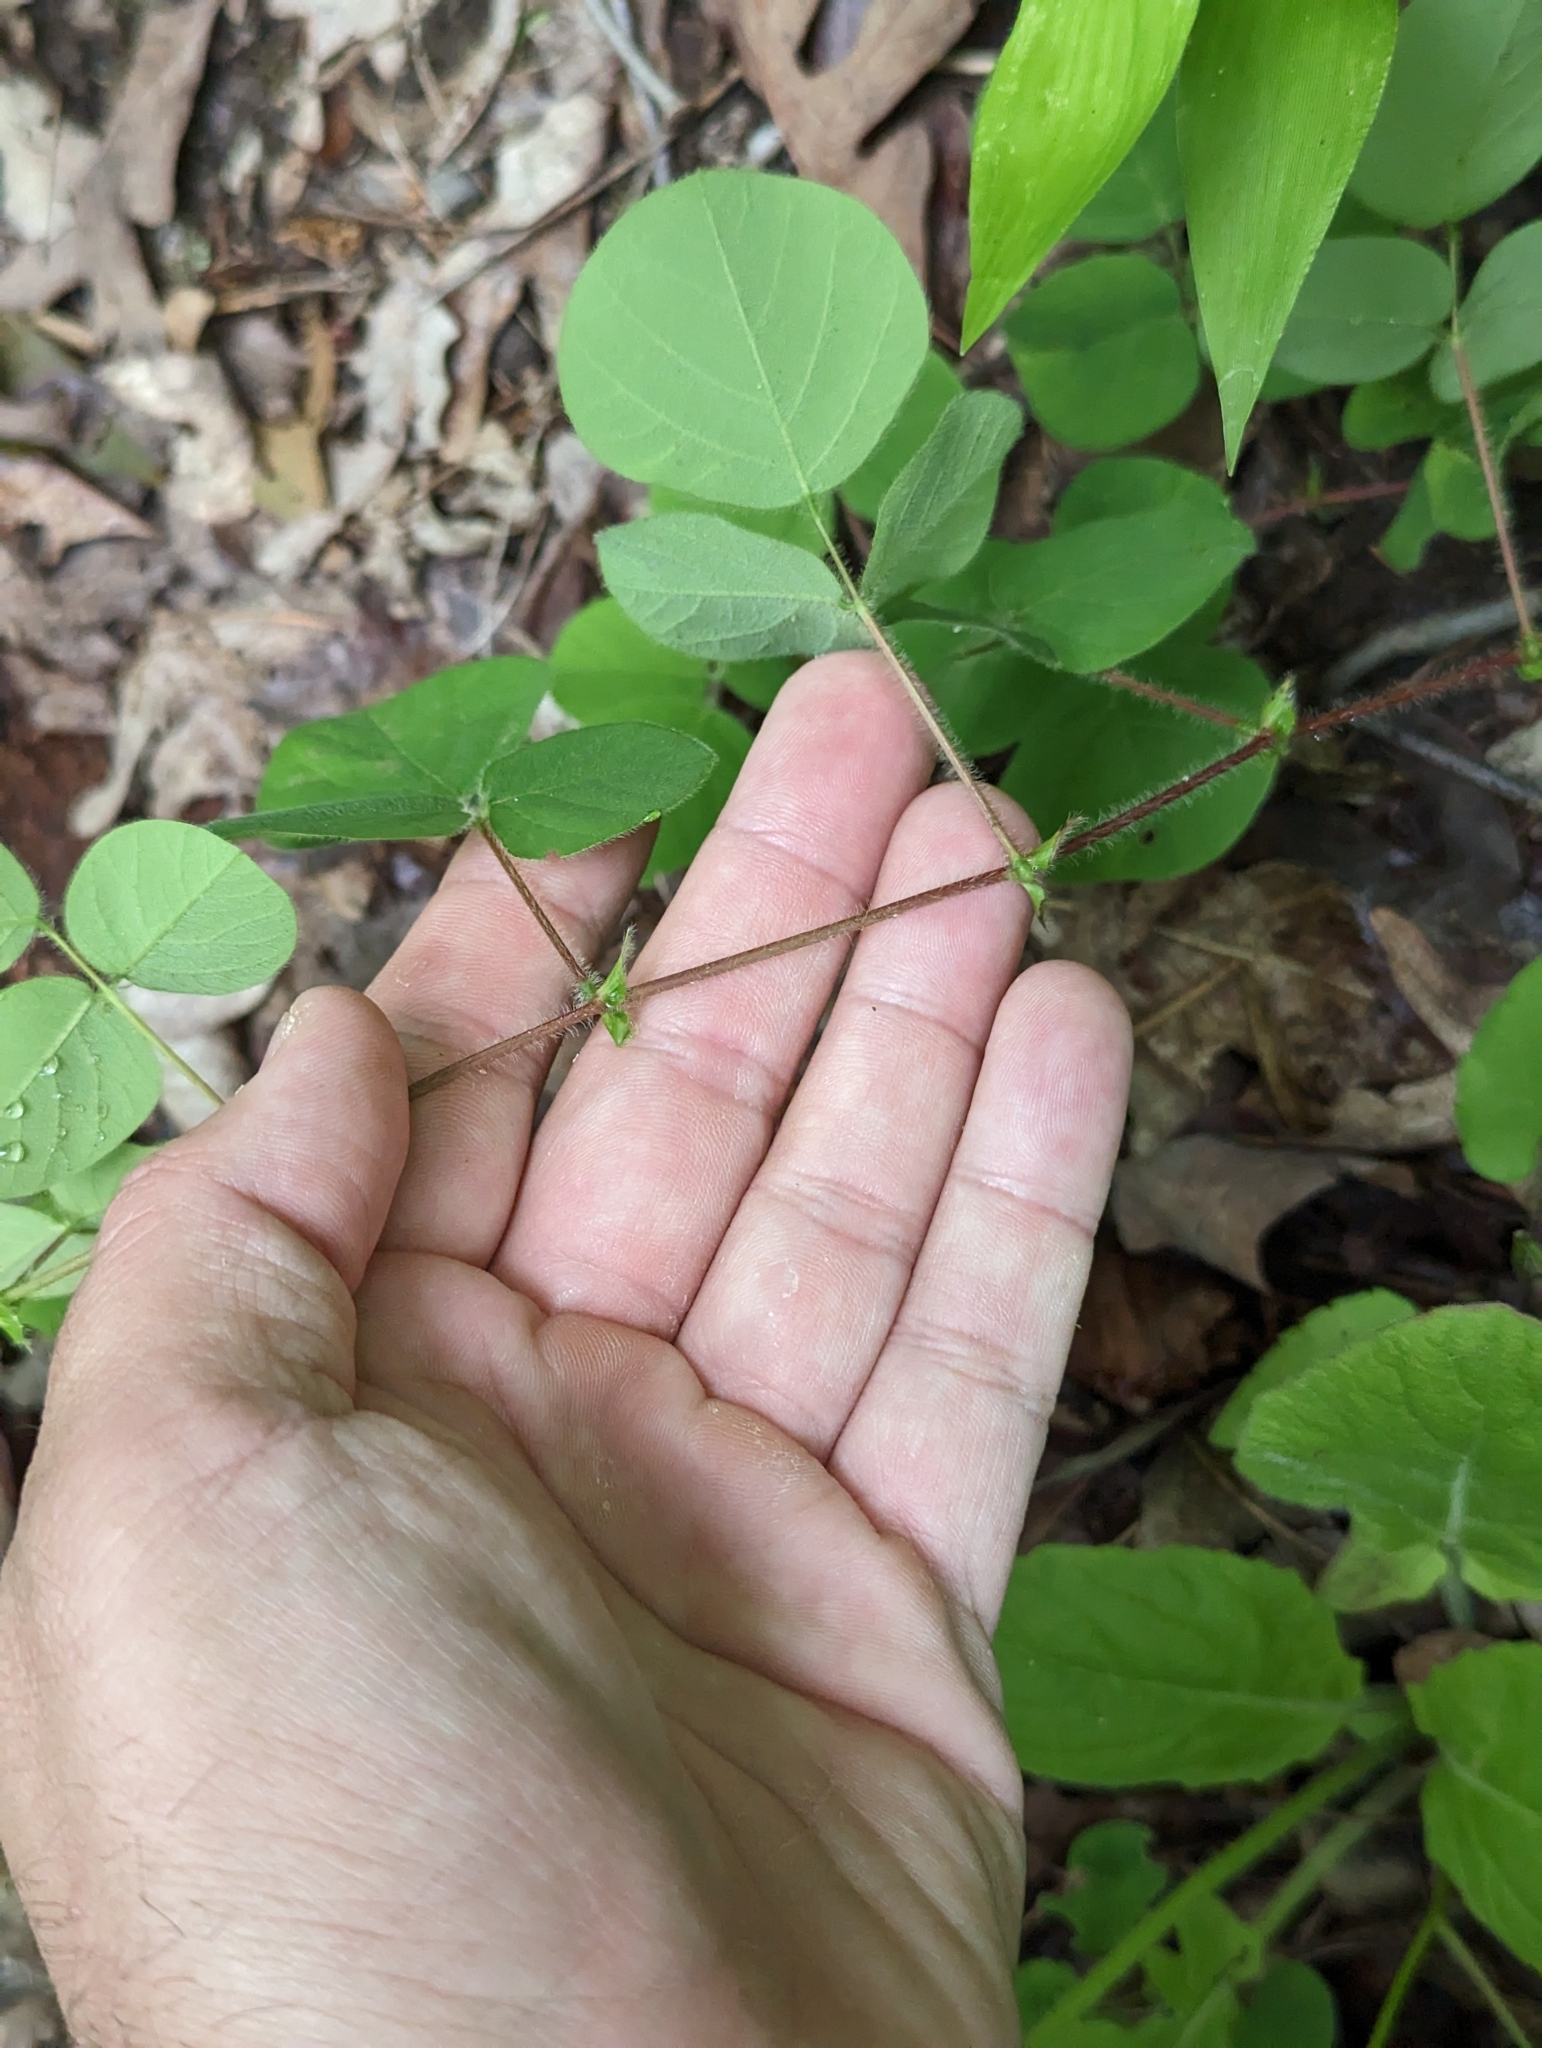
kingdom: Plantae
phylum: Tracheophyta
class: Magnoliopsida
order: Fabales
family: Fabaceae
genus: Desmodium
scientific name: Desmodium rotundifolium
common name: Dollarleaf
